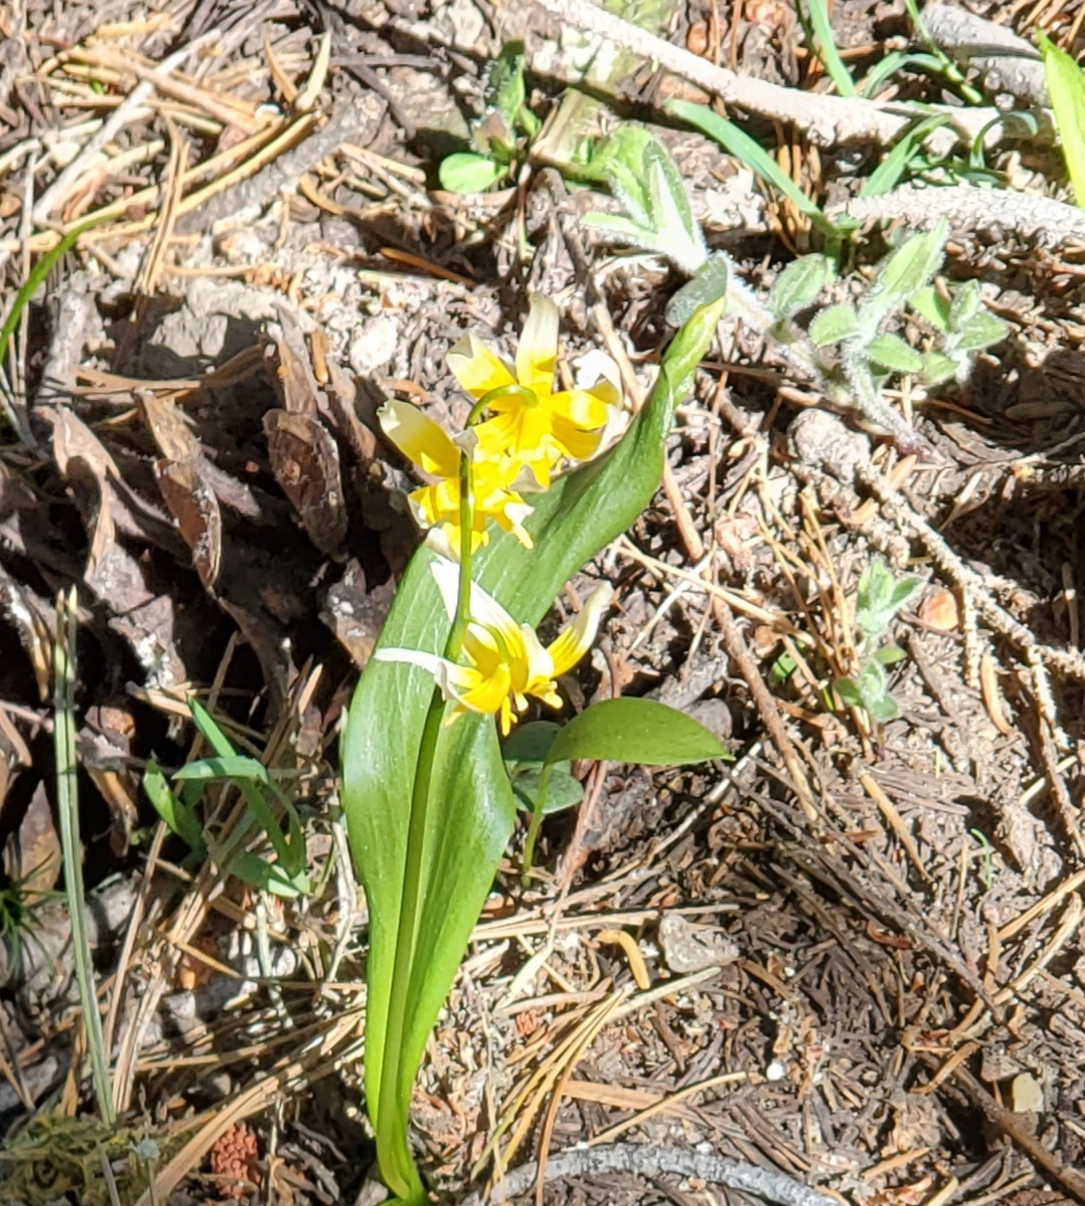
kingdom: Plantae
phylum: Tracheophyta
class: Liliopsida
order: Liliales
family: Liliaceae
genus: Erythronium
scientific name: Erythronium purpurascens
